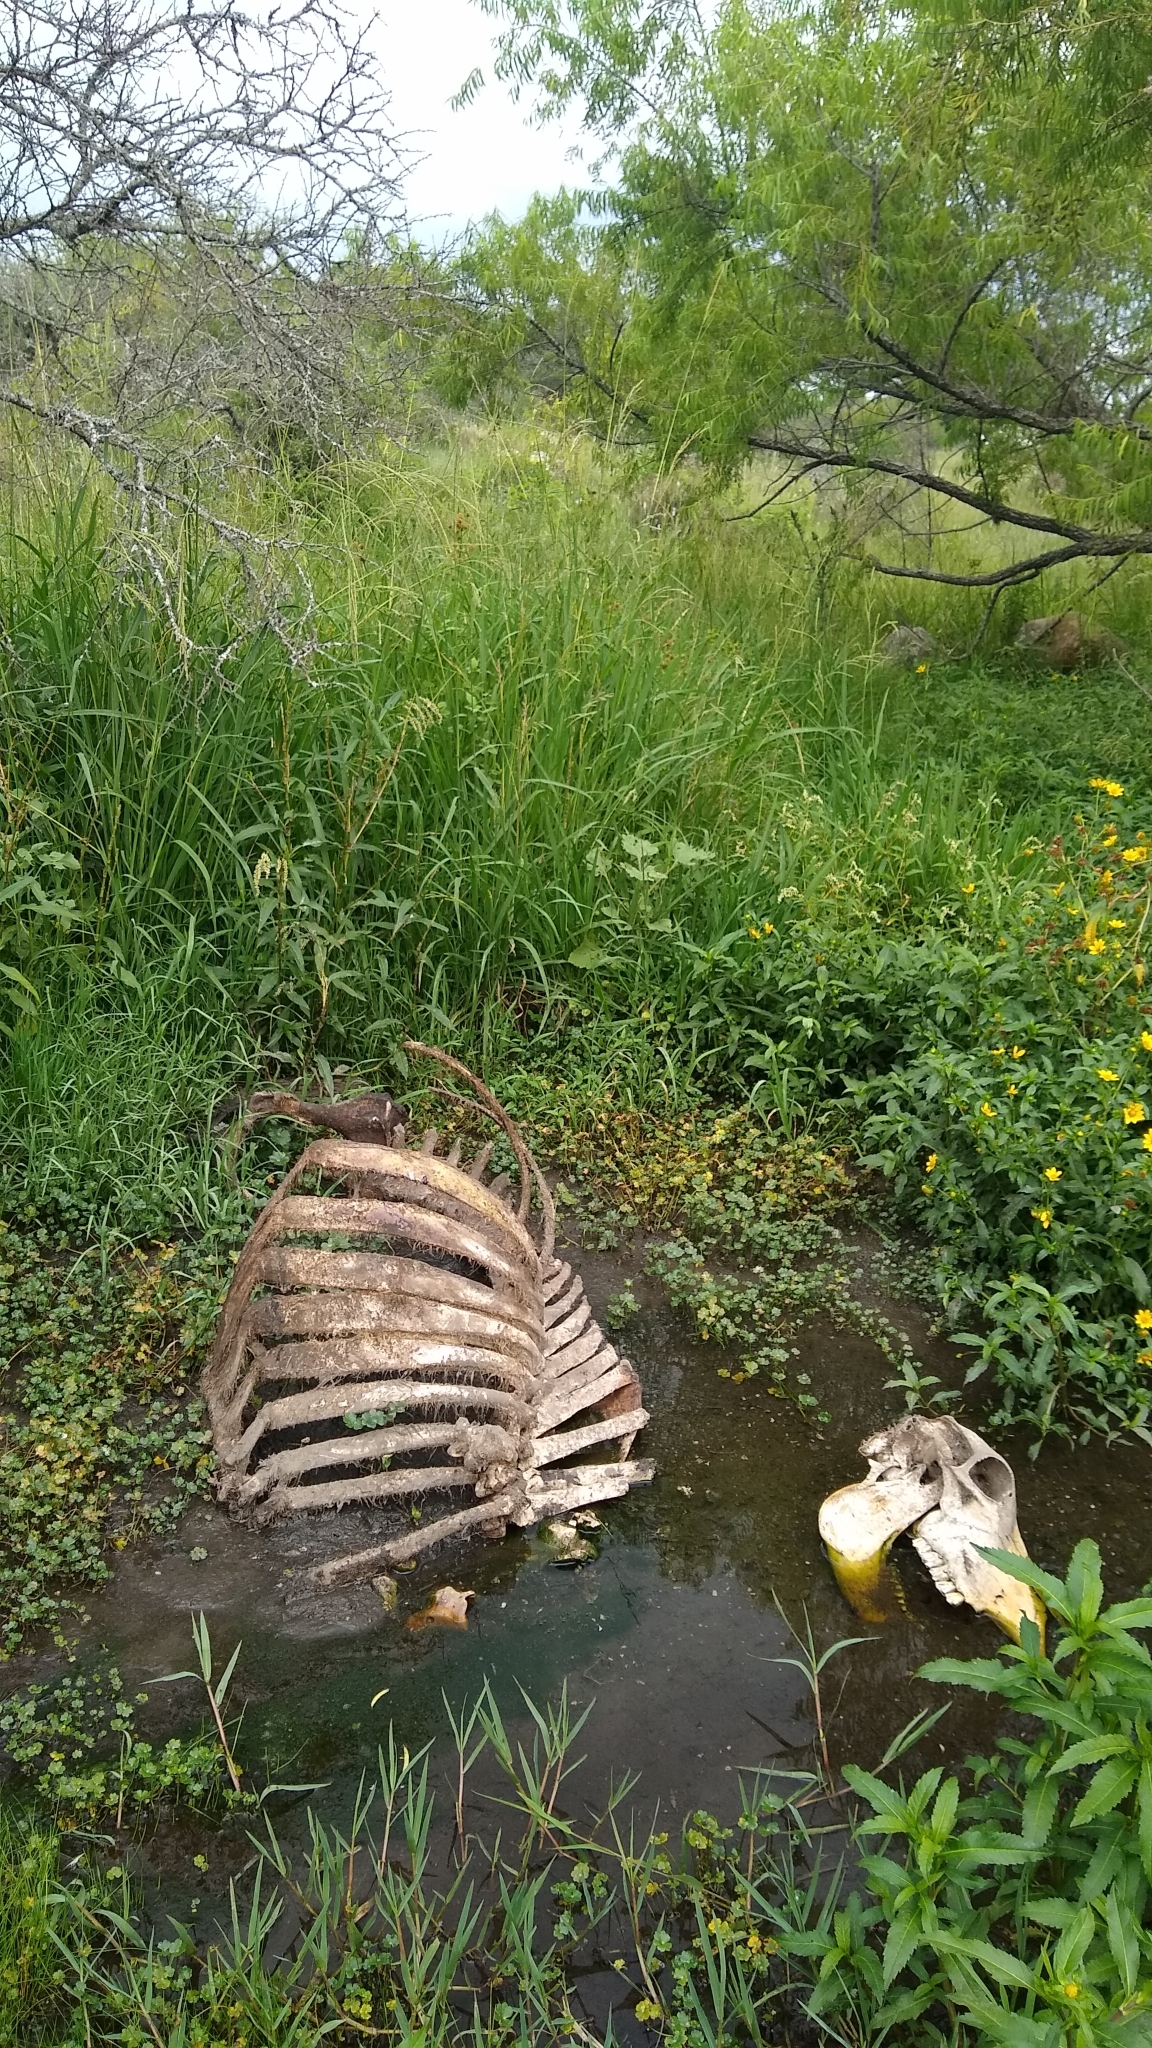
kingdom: Animalia
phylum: Chordata
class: Mammalia
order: Artiodactyla
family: Bovidae
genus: Bos
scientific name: Bos taurus
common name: Domesticated cattle
